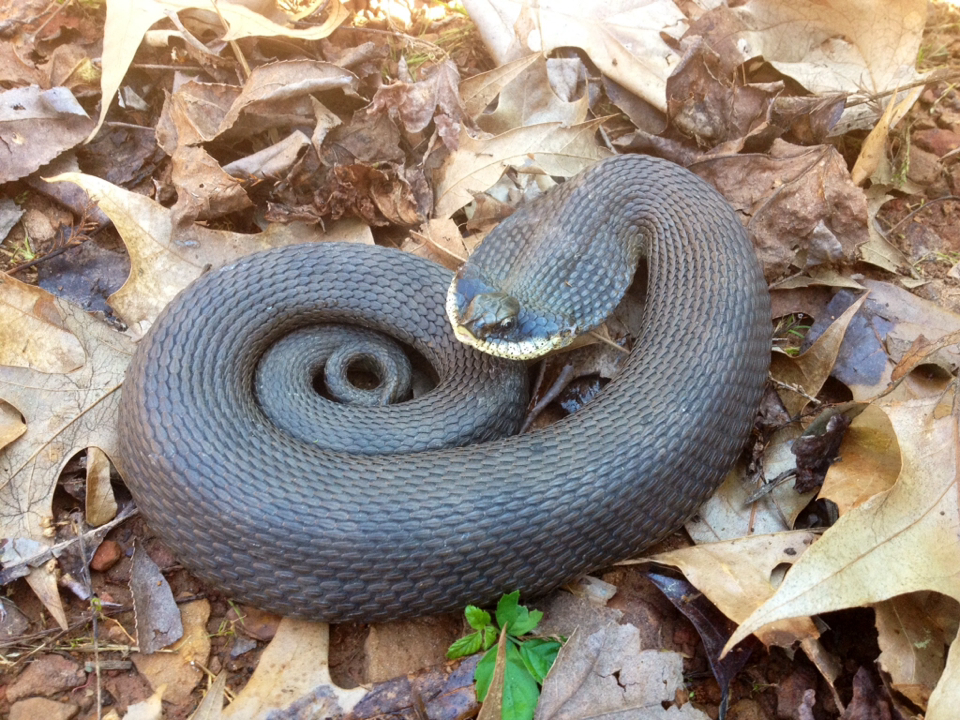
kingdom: Animalia
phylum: Chordata
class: Squamata
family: Colubridae
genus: Heterodon
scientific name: Heterodon platirhinos
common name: Eastern hognose snake
